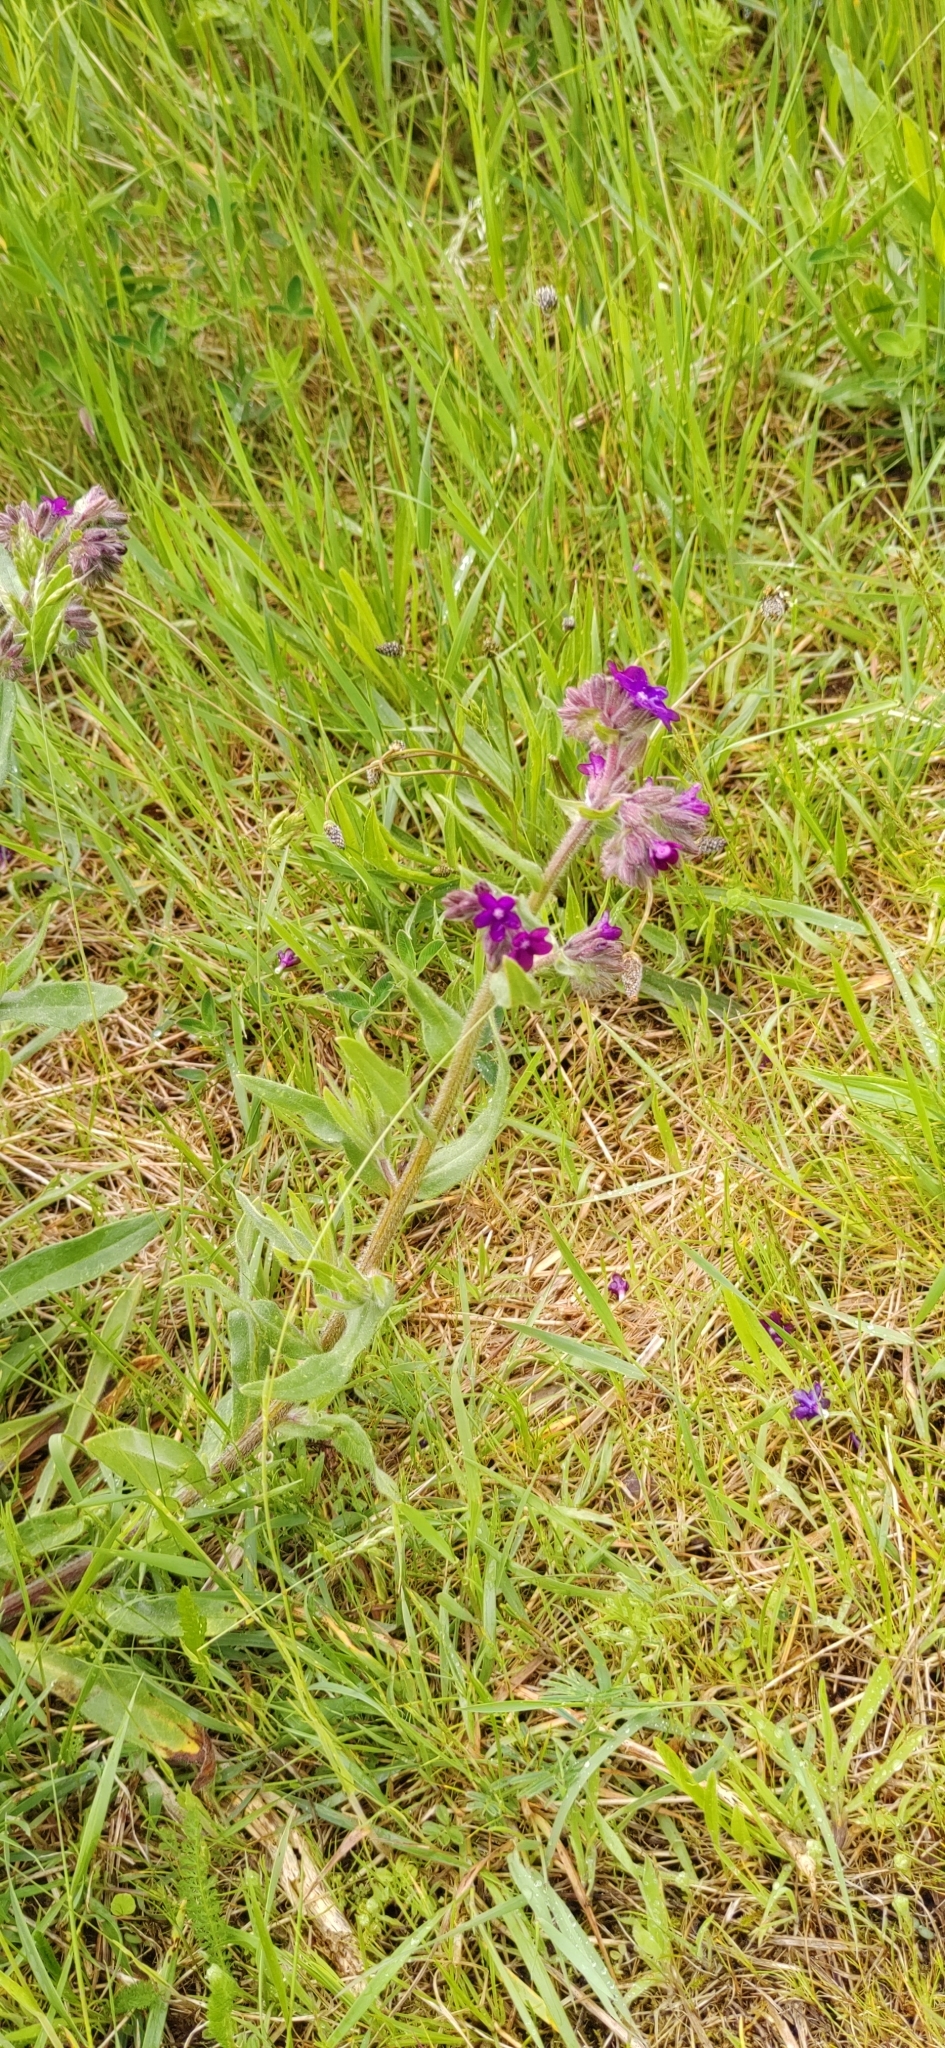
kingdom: Plantae
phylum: Tracheophyta
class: Magnoliopsida
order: Boraginales
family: Boraginaceae
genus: Anchusa
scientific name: Anchusa officinalis
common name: Alkanet
